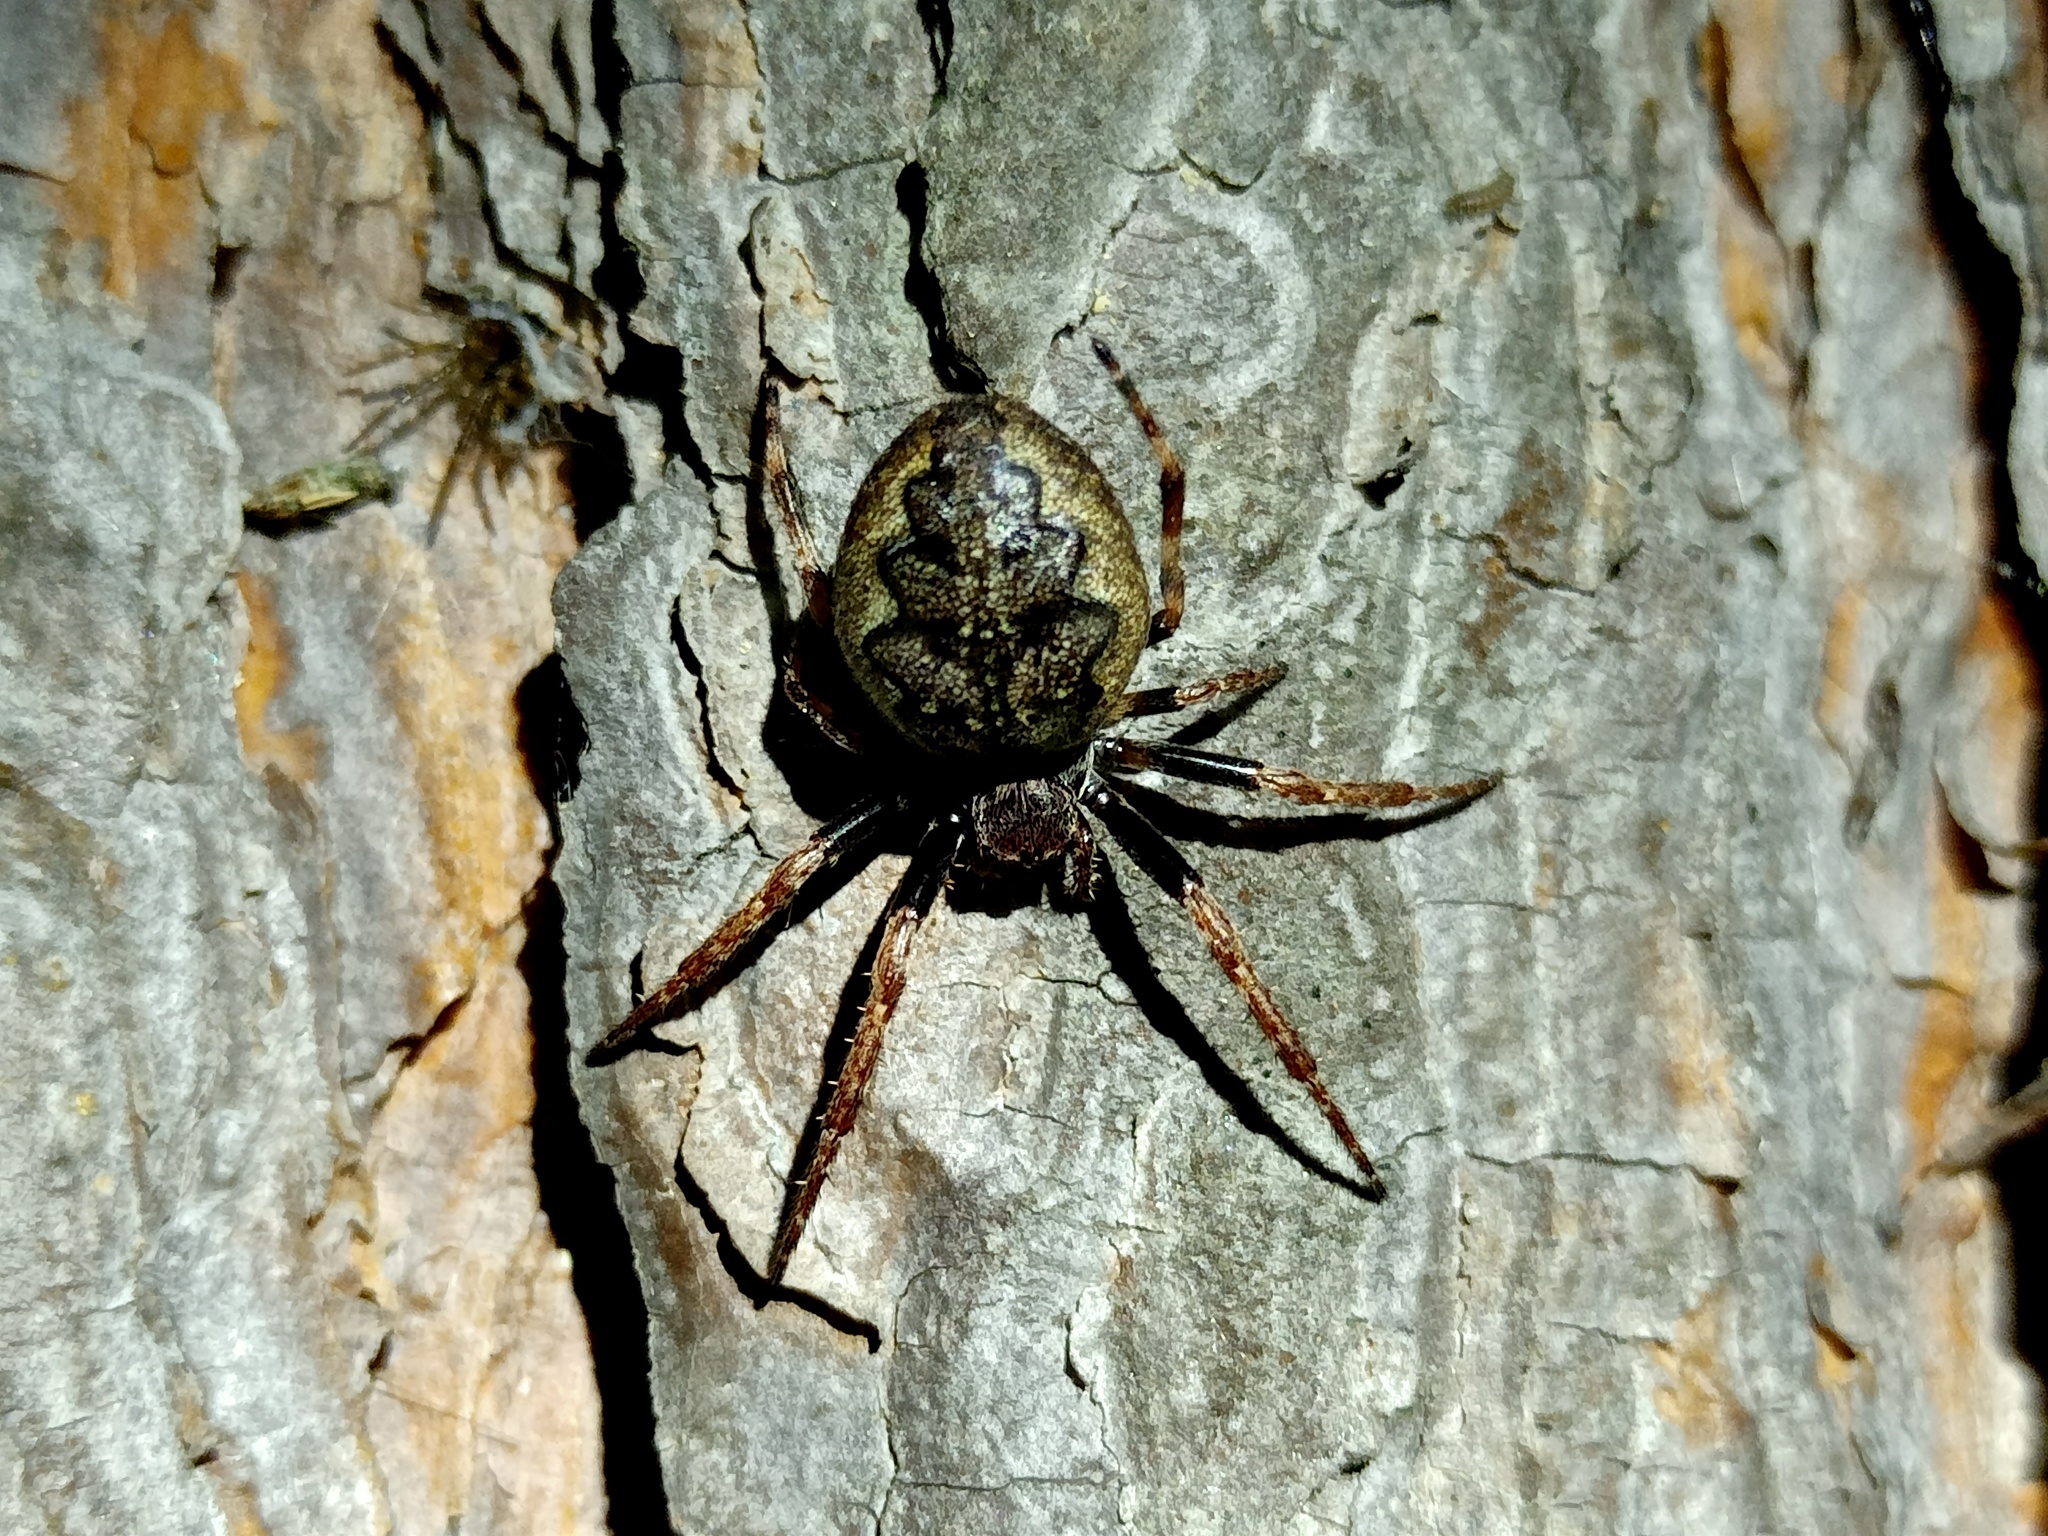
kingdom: Animalia
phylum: Arthropoda
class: Arachnida
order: Araneae
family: Araneidae
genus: Nuctenea
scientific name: Nuctenea umbratica
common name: Toad spider
